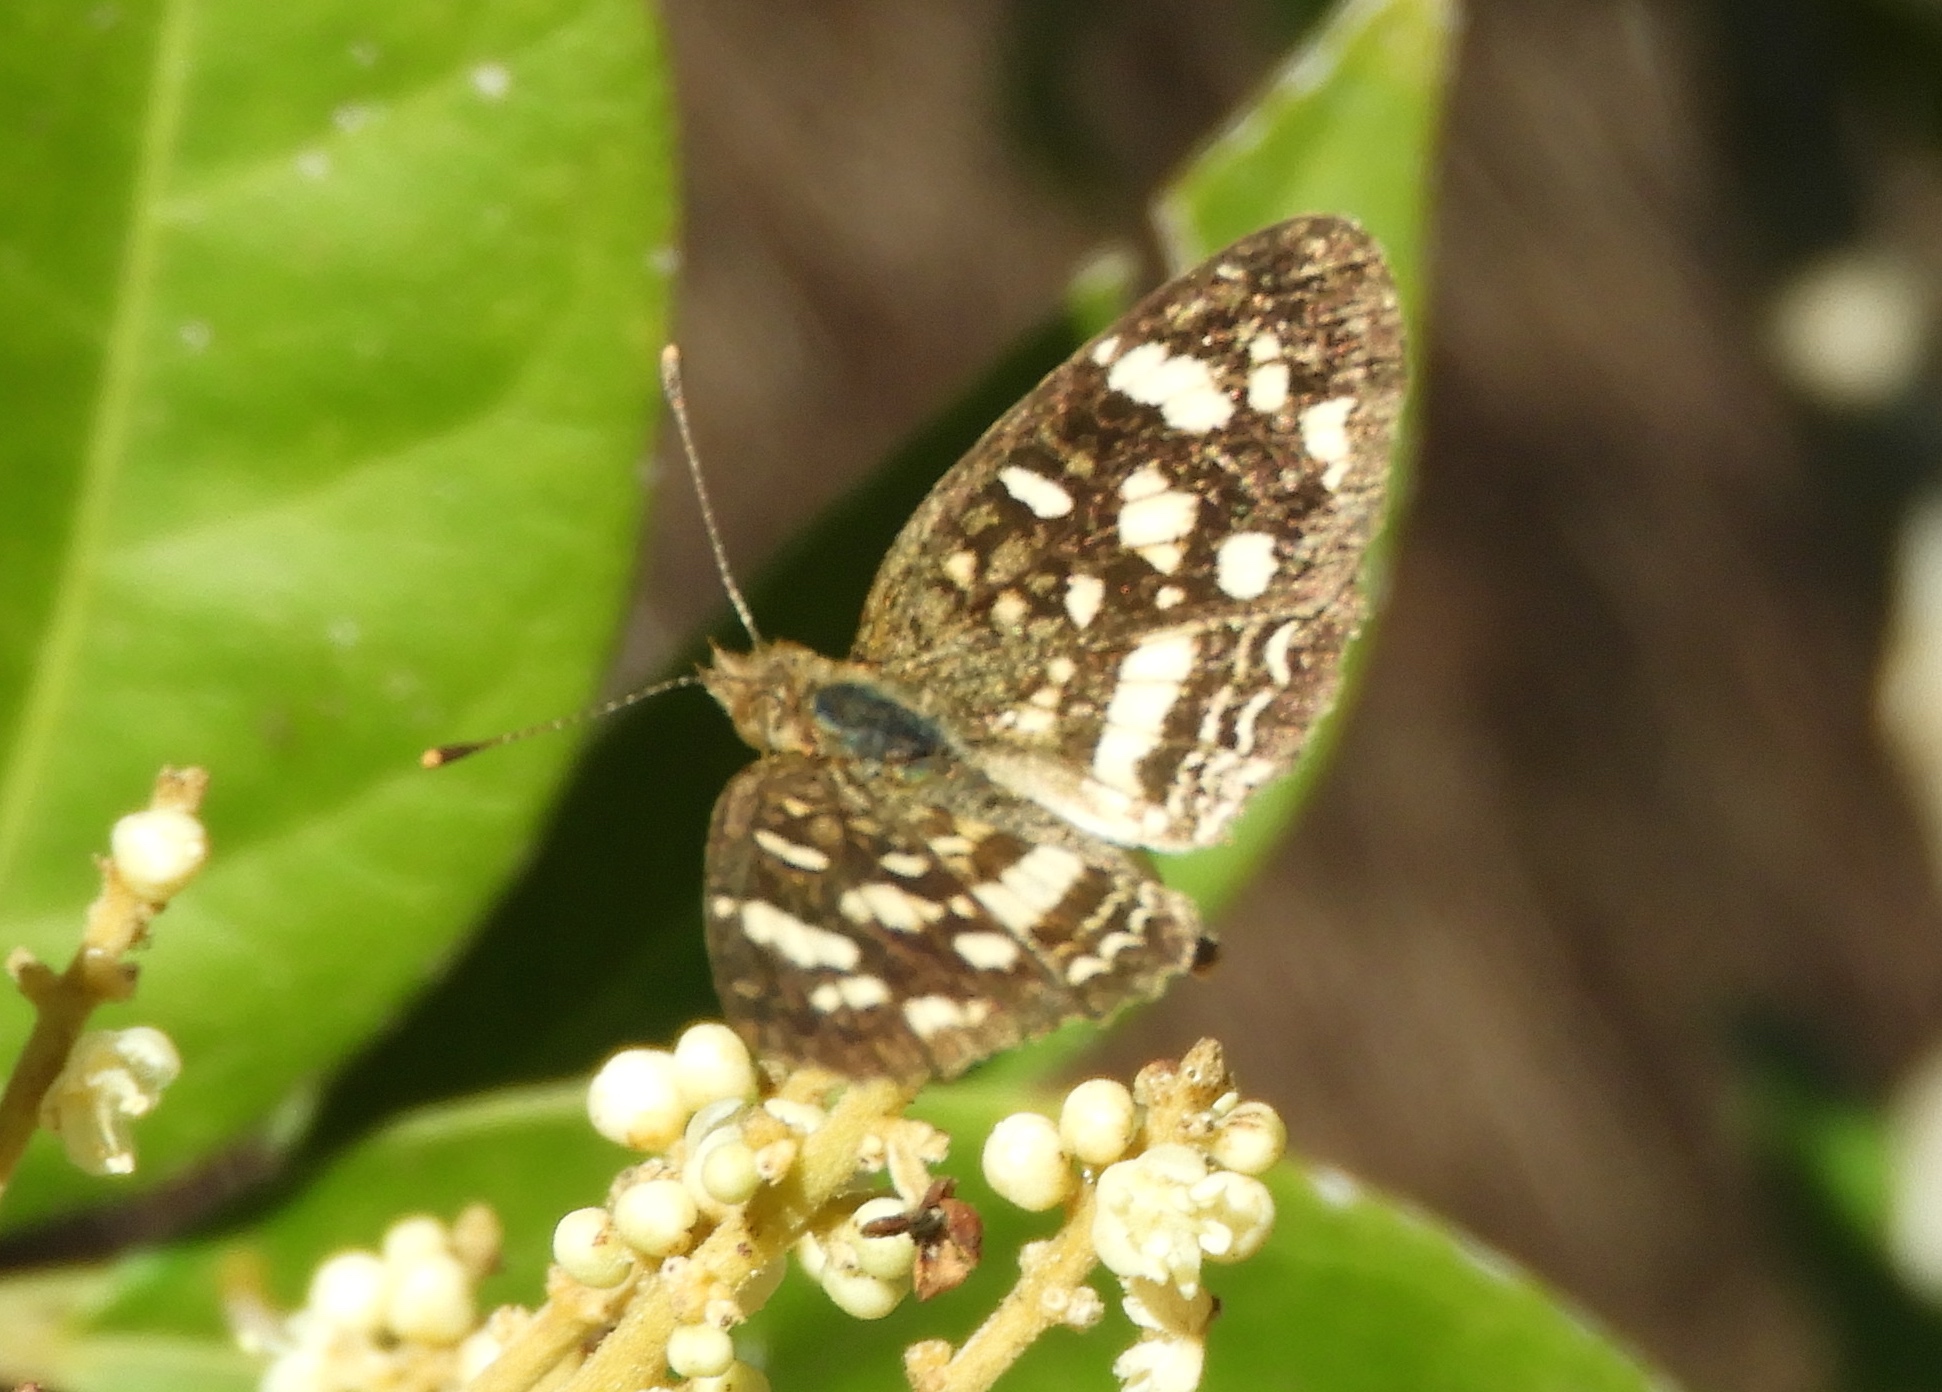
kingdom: Animalia
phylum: Arthropoda
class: Insecta
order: Lepidoptera
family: Nymphalidae
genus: Anthanassa
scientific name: Anthanassa tulcis
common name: Pale-banded crescent
